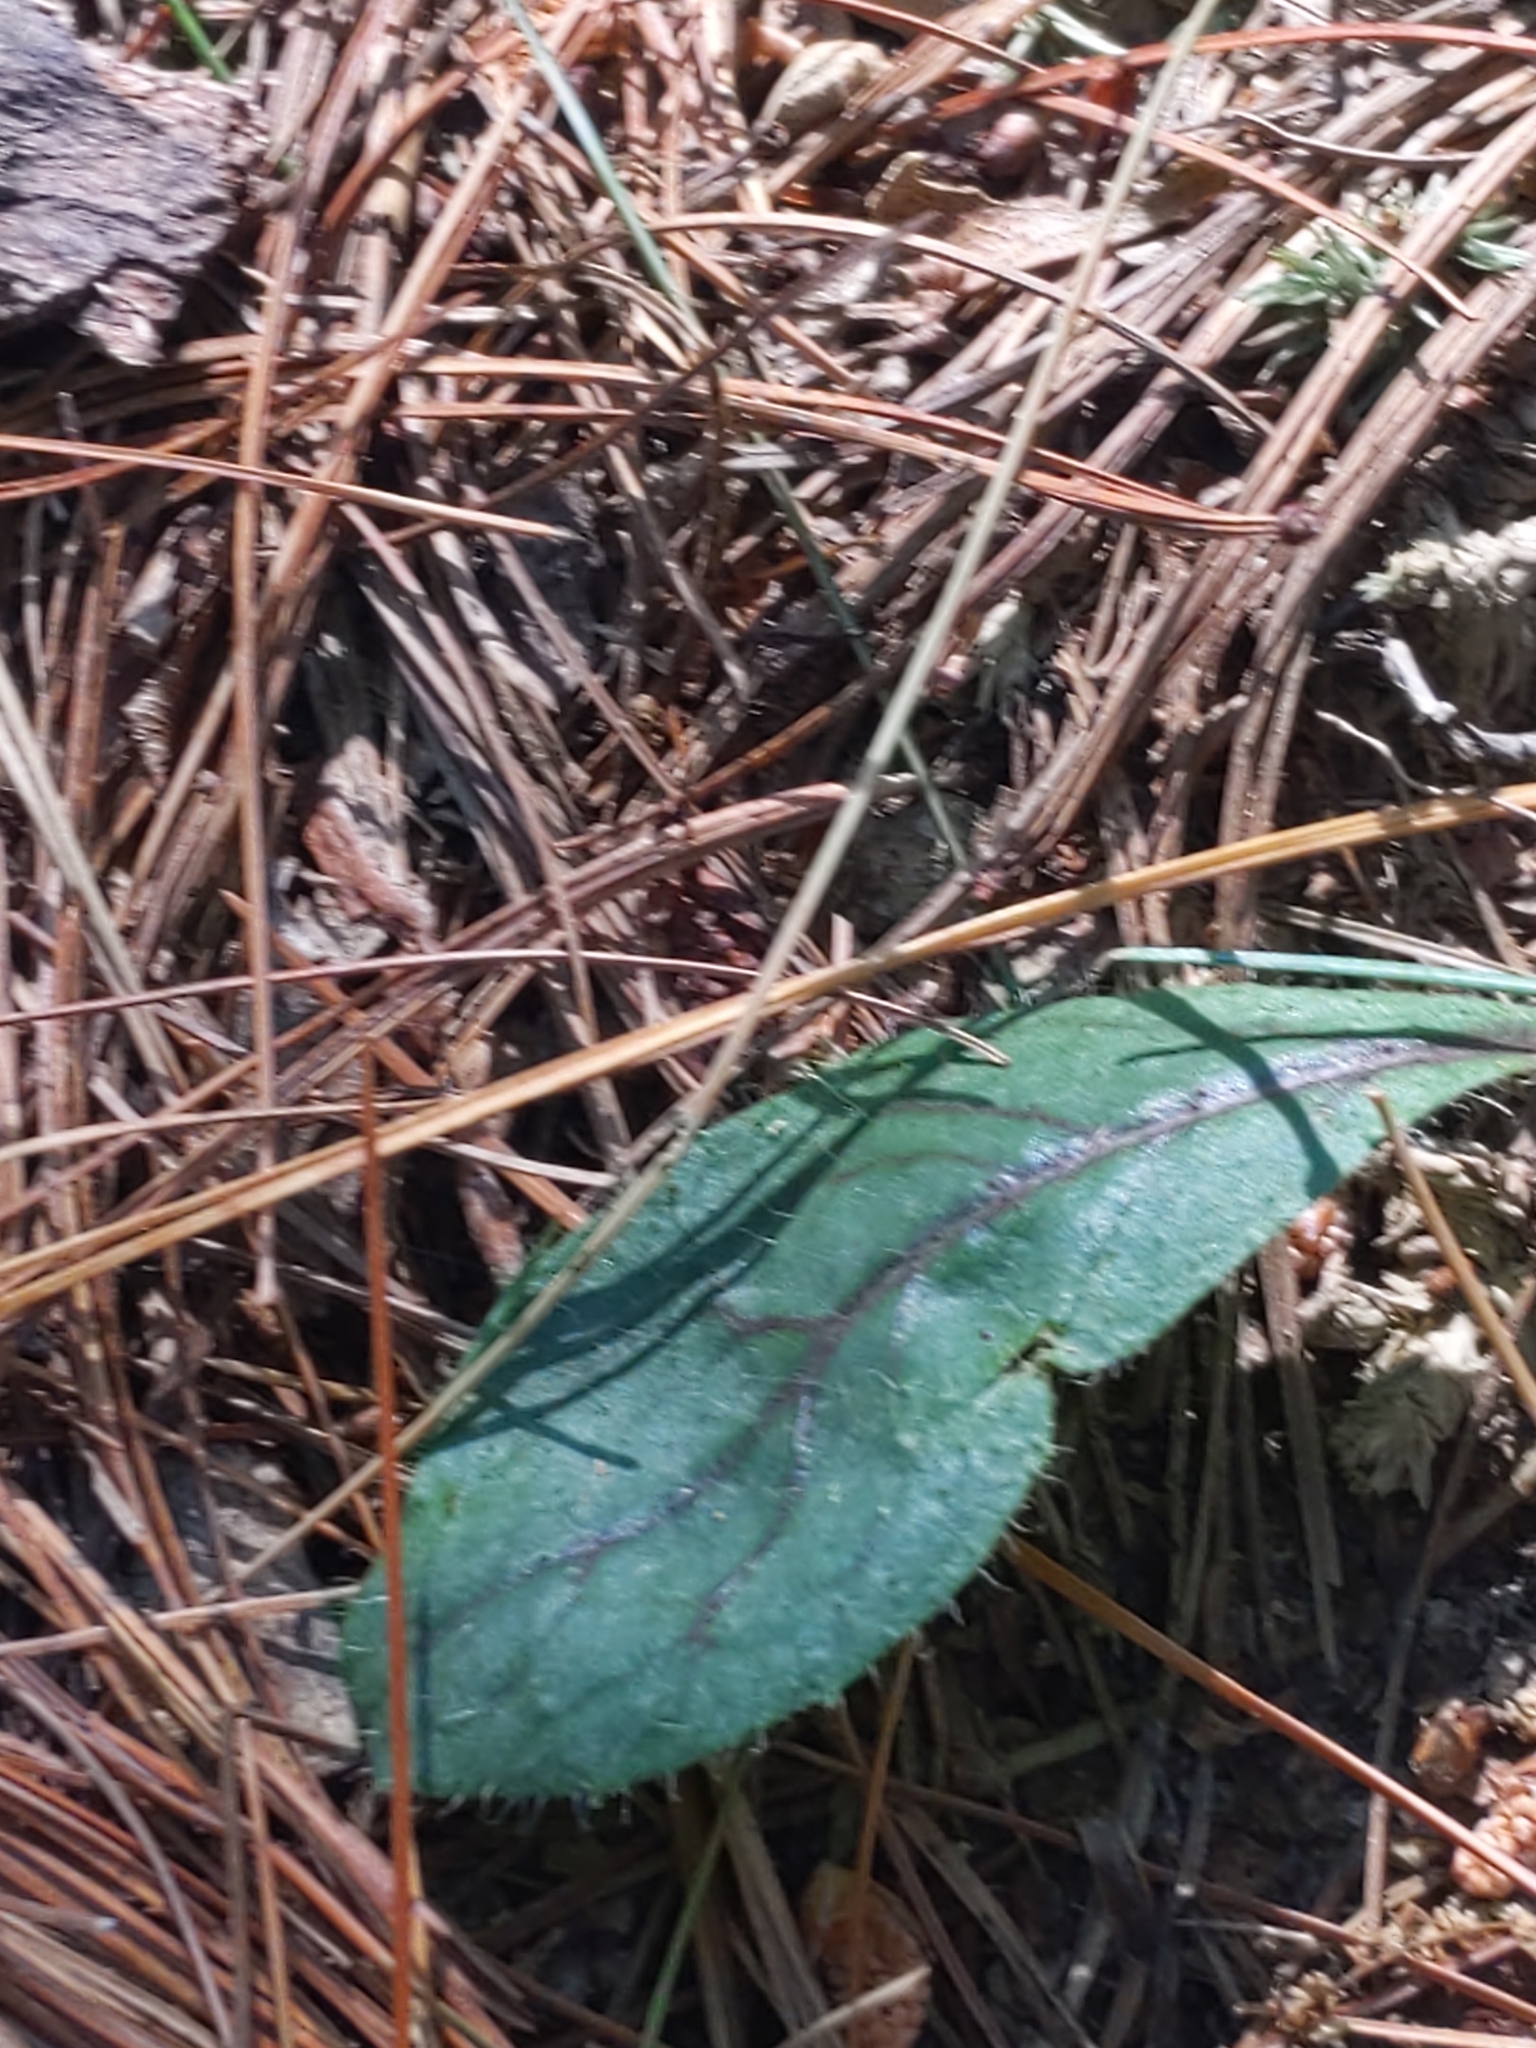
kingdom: Plantae
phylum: Tracheophyta
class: Magnoliopsida
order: Asterales
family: Asteraceae
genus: Hieracium
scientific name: Hieracium venosum
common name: Rattlesnake hawkweed
